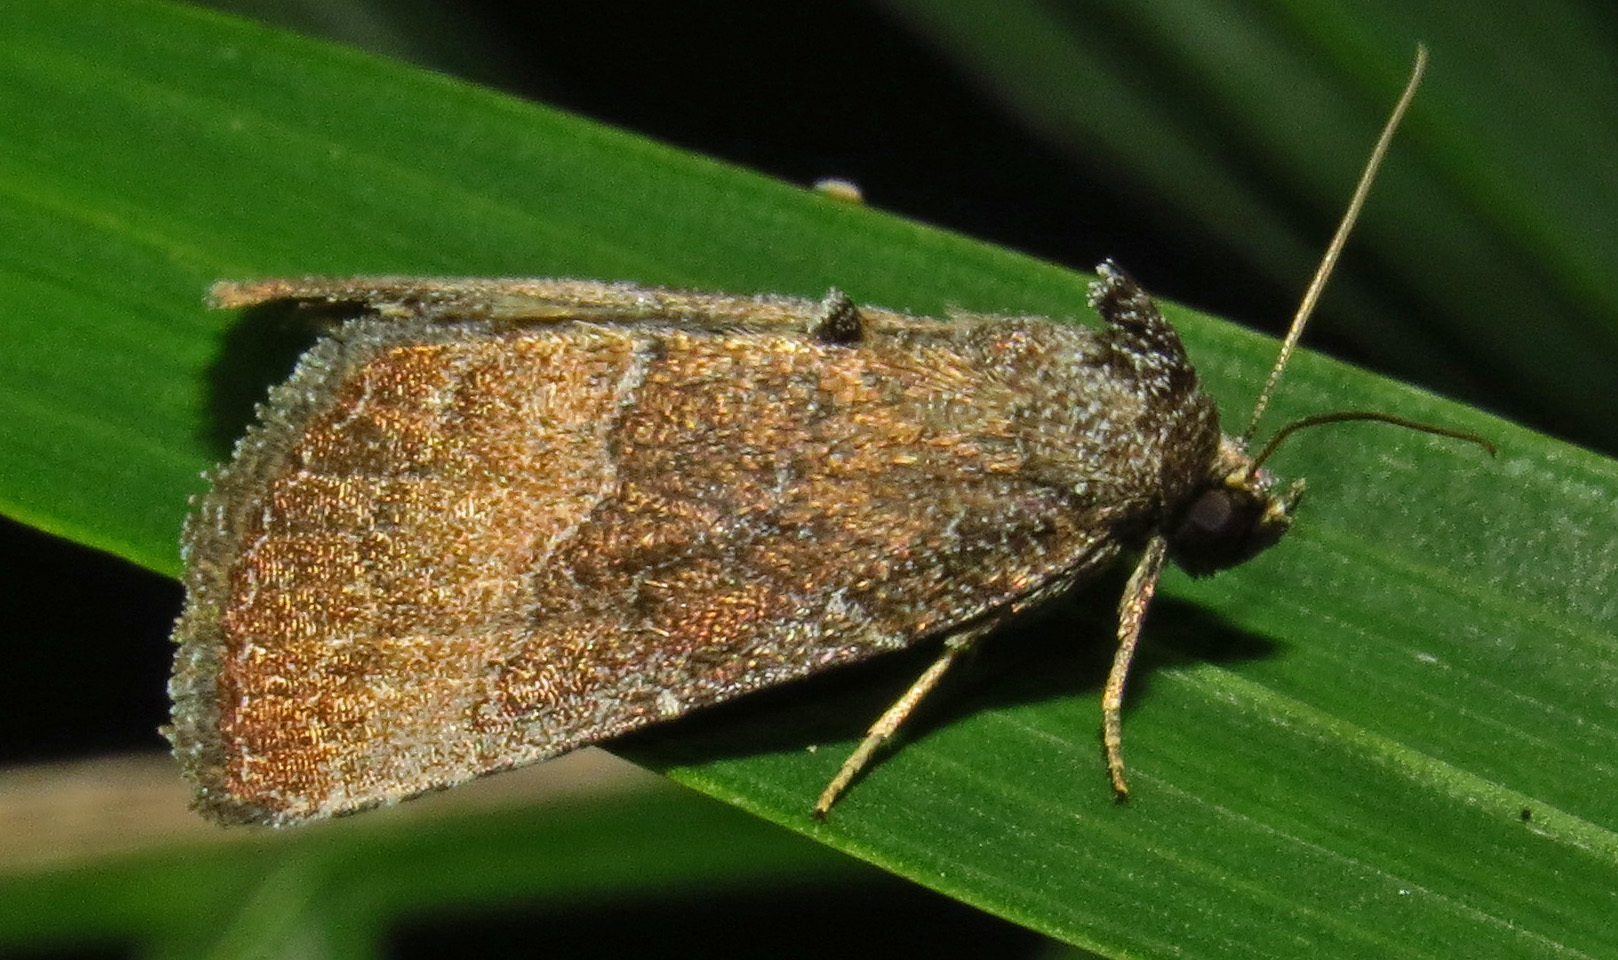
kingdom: Animalia
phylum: Arthropoda
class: Insecta
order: Lepidoptera
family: Noctuidae
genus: Ogdoconta
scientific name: Ogdoconta cinereola
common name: Common pinkband
